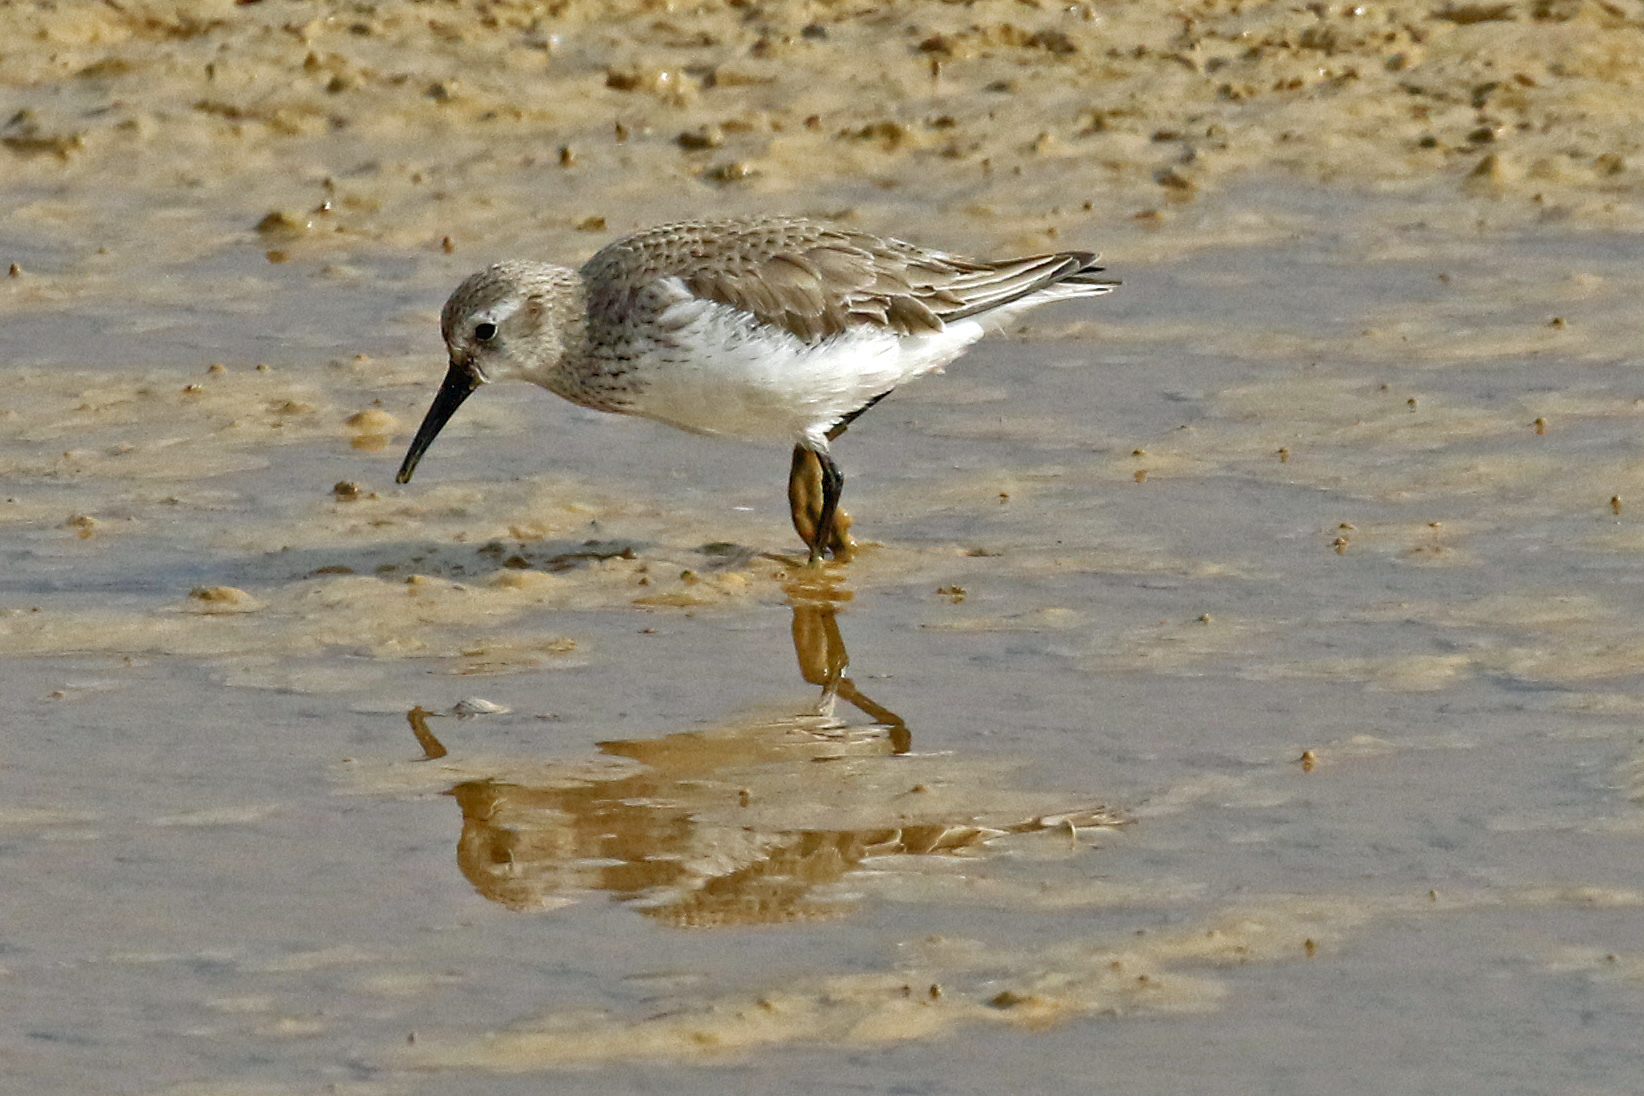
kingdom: Animalia
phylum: Chordata
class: Aves
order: Charadriiformes
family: Scolopacidae
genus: Calidris
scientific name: Calidris alpina
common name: Dunlin
